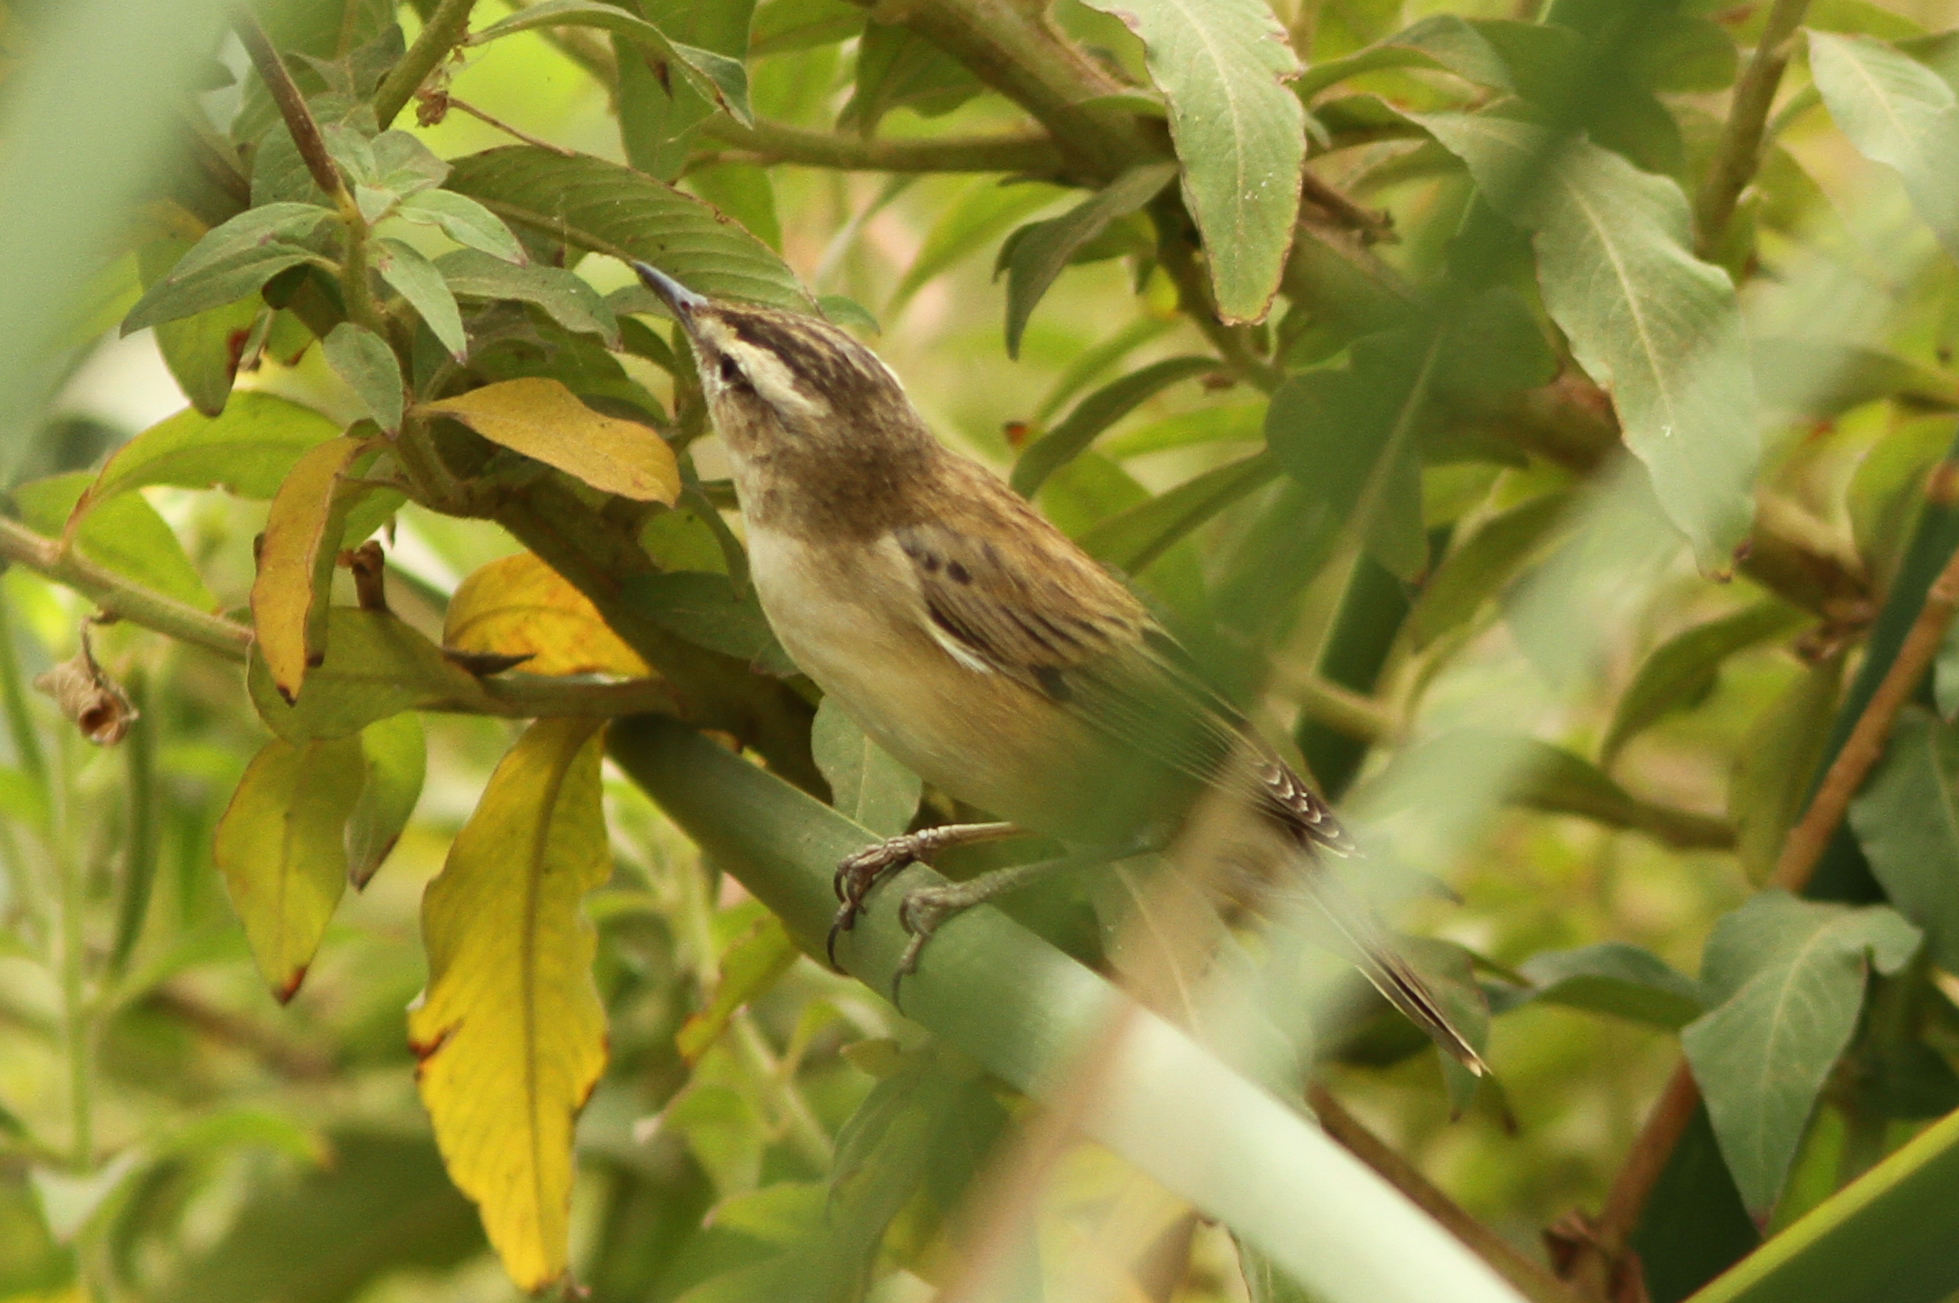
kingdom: Animalia
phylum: Chordata
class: Aves
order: Passeriformes
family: Acrocephalidae
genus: Acrocephalus
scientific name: Acrocephalus schoenobaenus
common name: Sedge warbler
